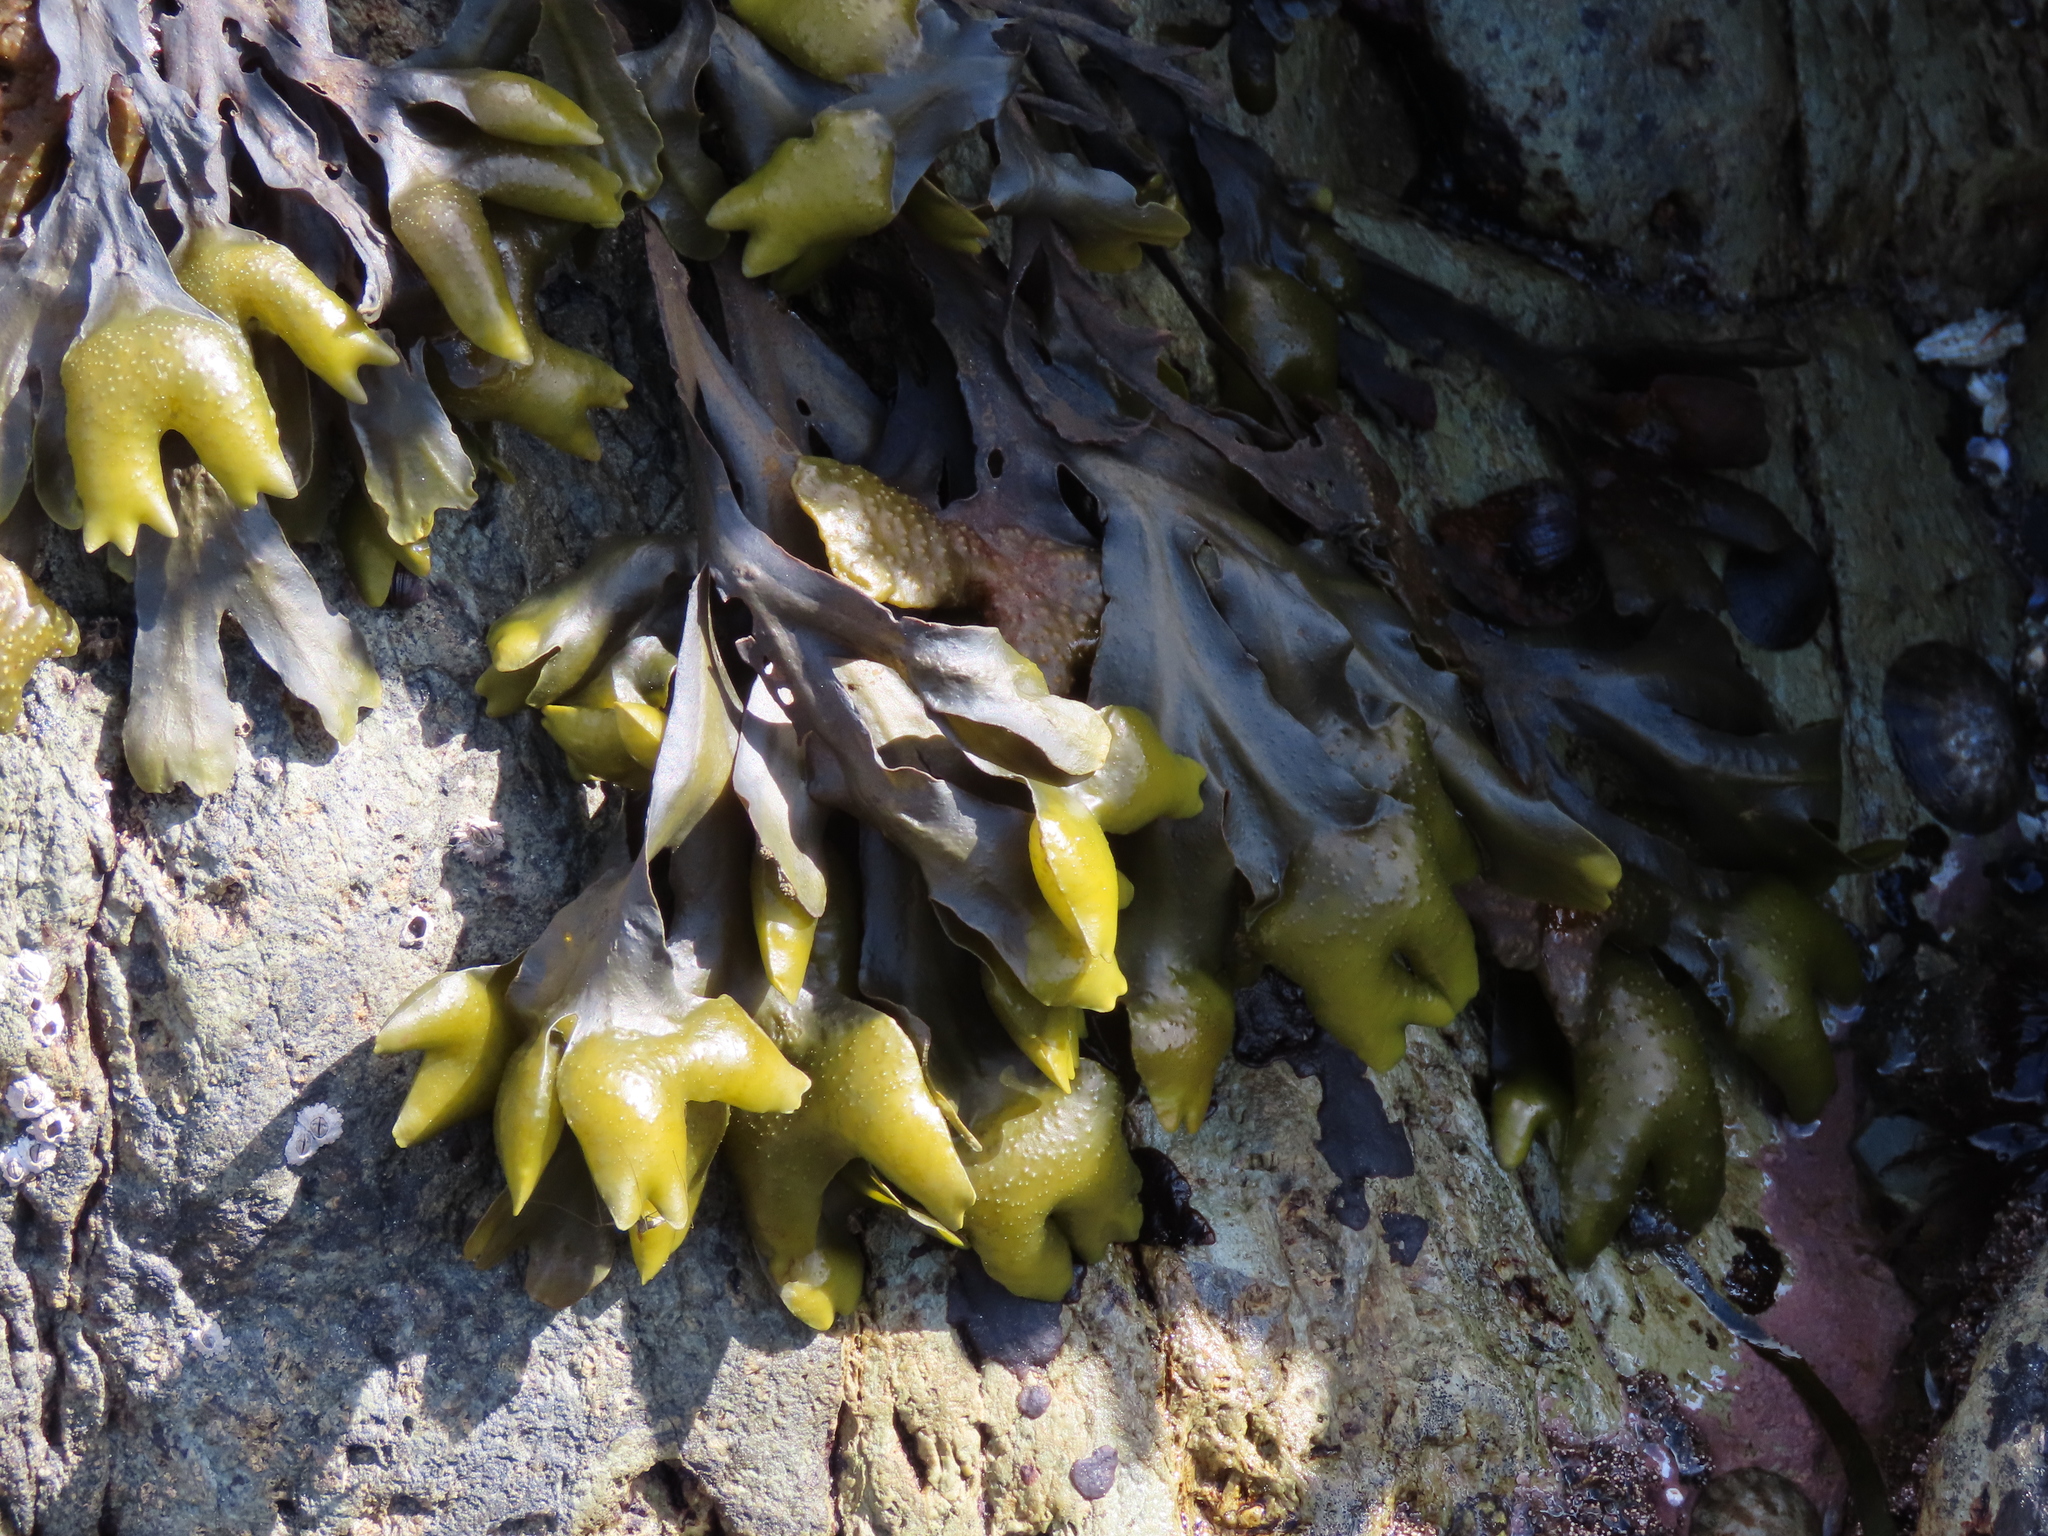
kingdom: Chromista
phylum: Ochrophyta
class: Phaeophyceae
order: Fucales
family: Fucaceae
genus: Fucus
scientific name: Fucus distichus
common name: Rockweed
